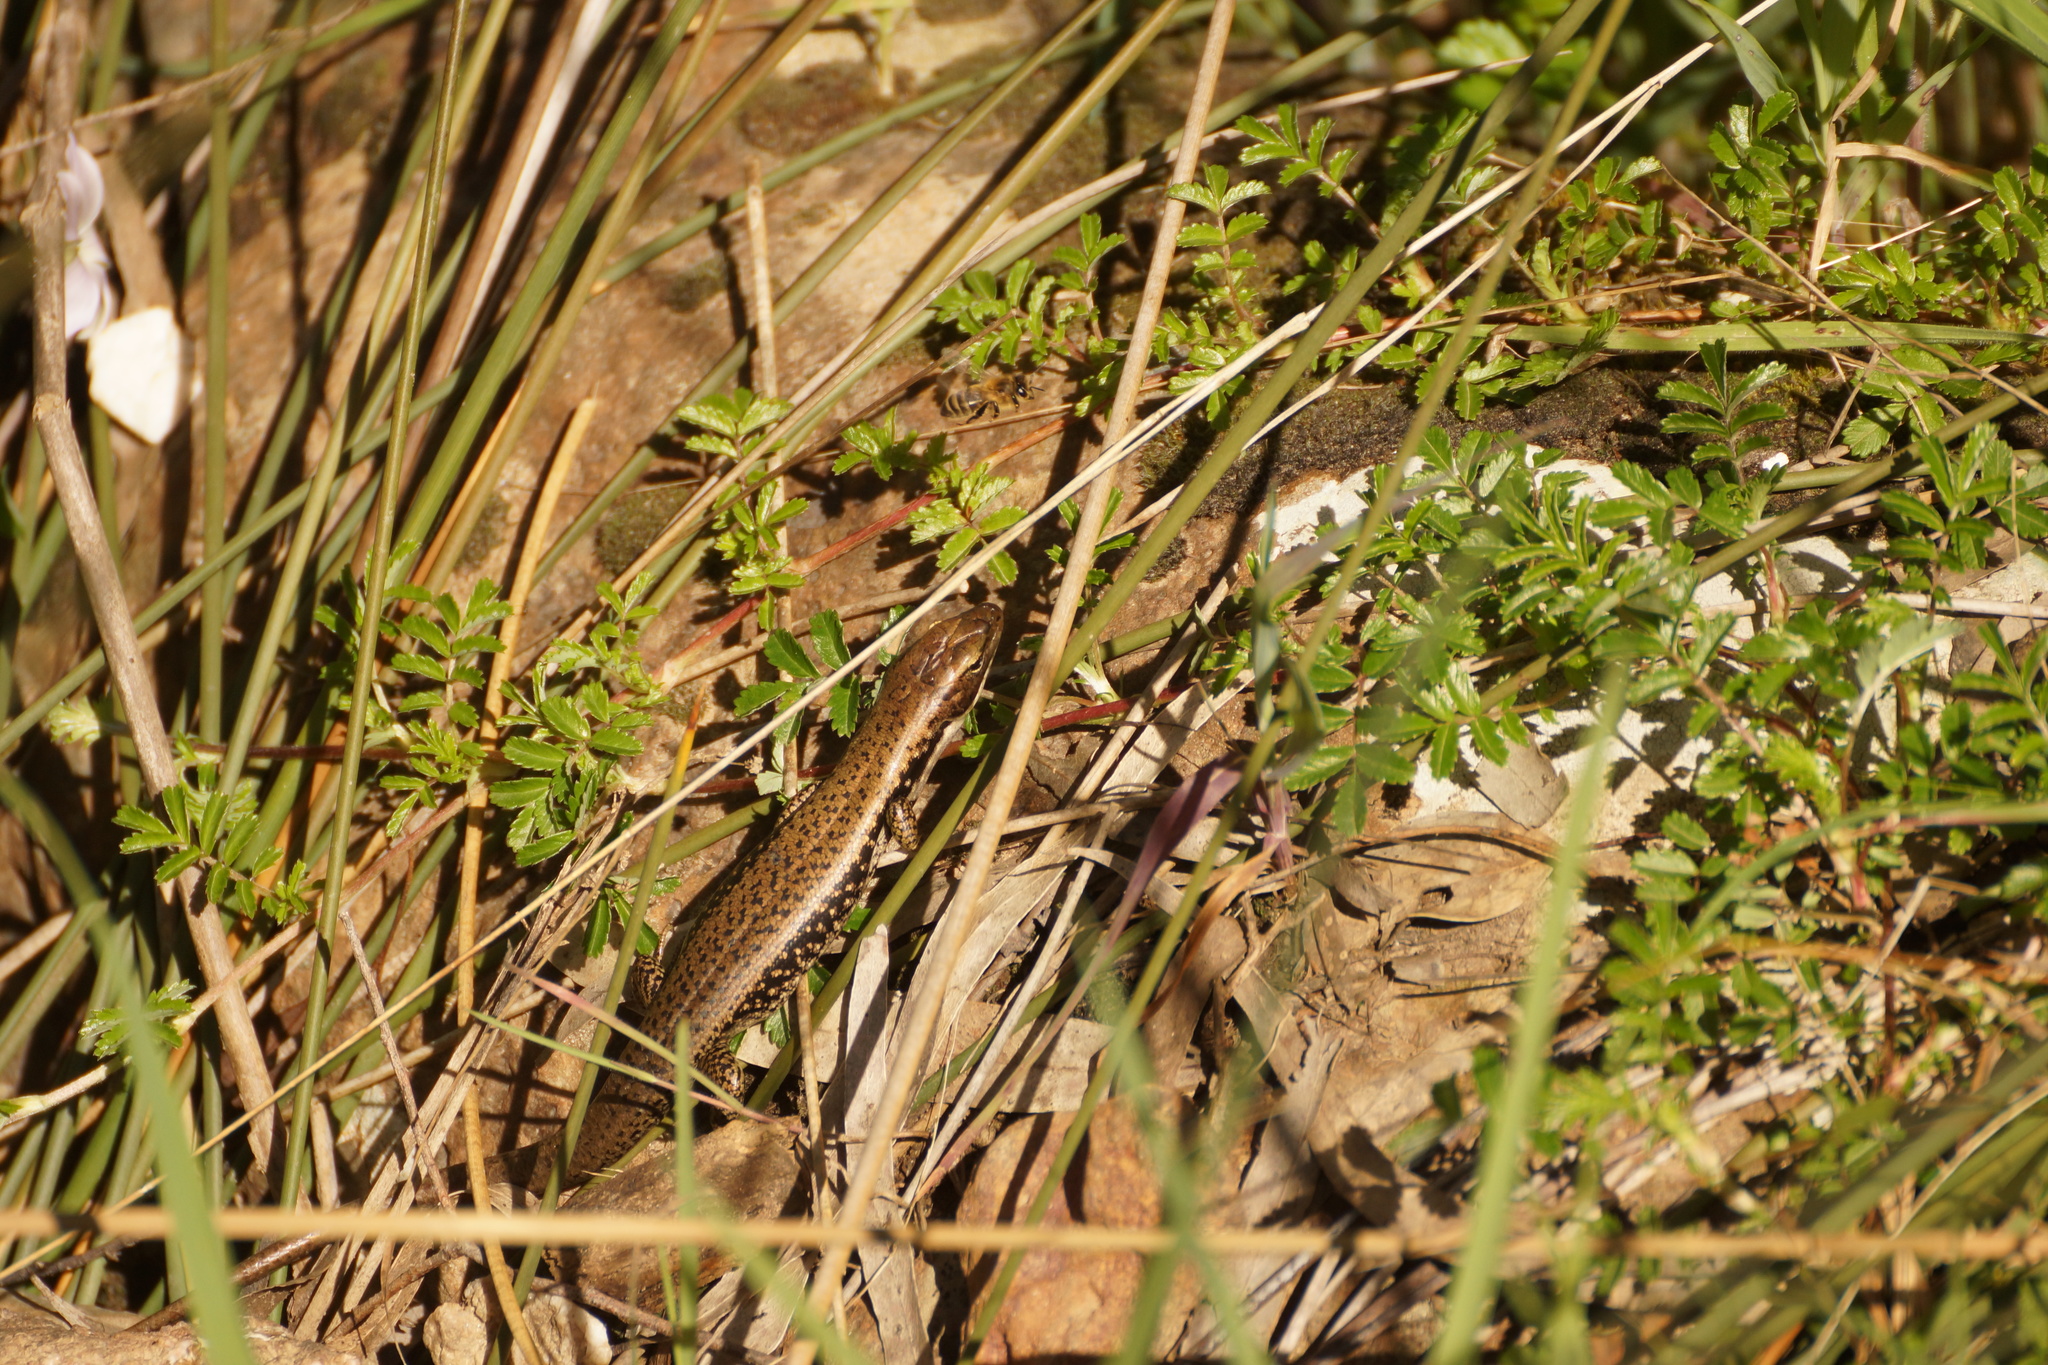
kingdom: Animalia
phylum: Chordata
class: Squamata
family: Scincidae
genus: Eulamprus
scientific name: Eulamprus tympanum
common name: Cool-temperate water-skink
